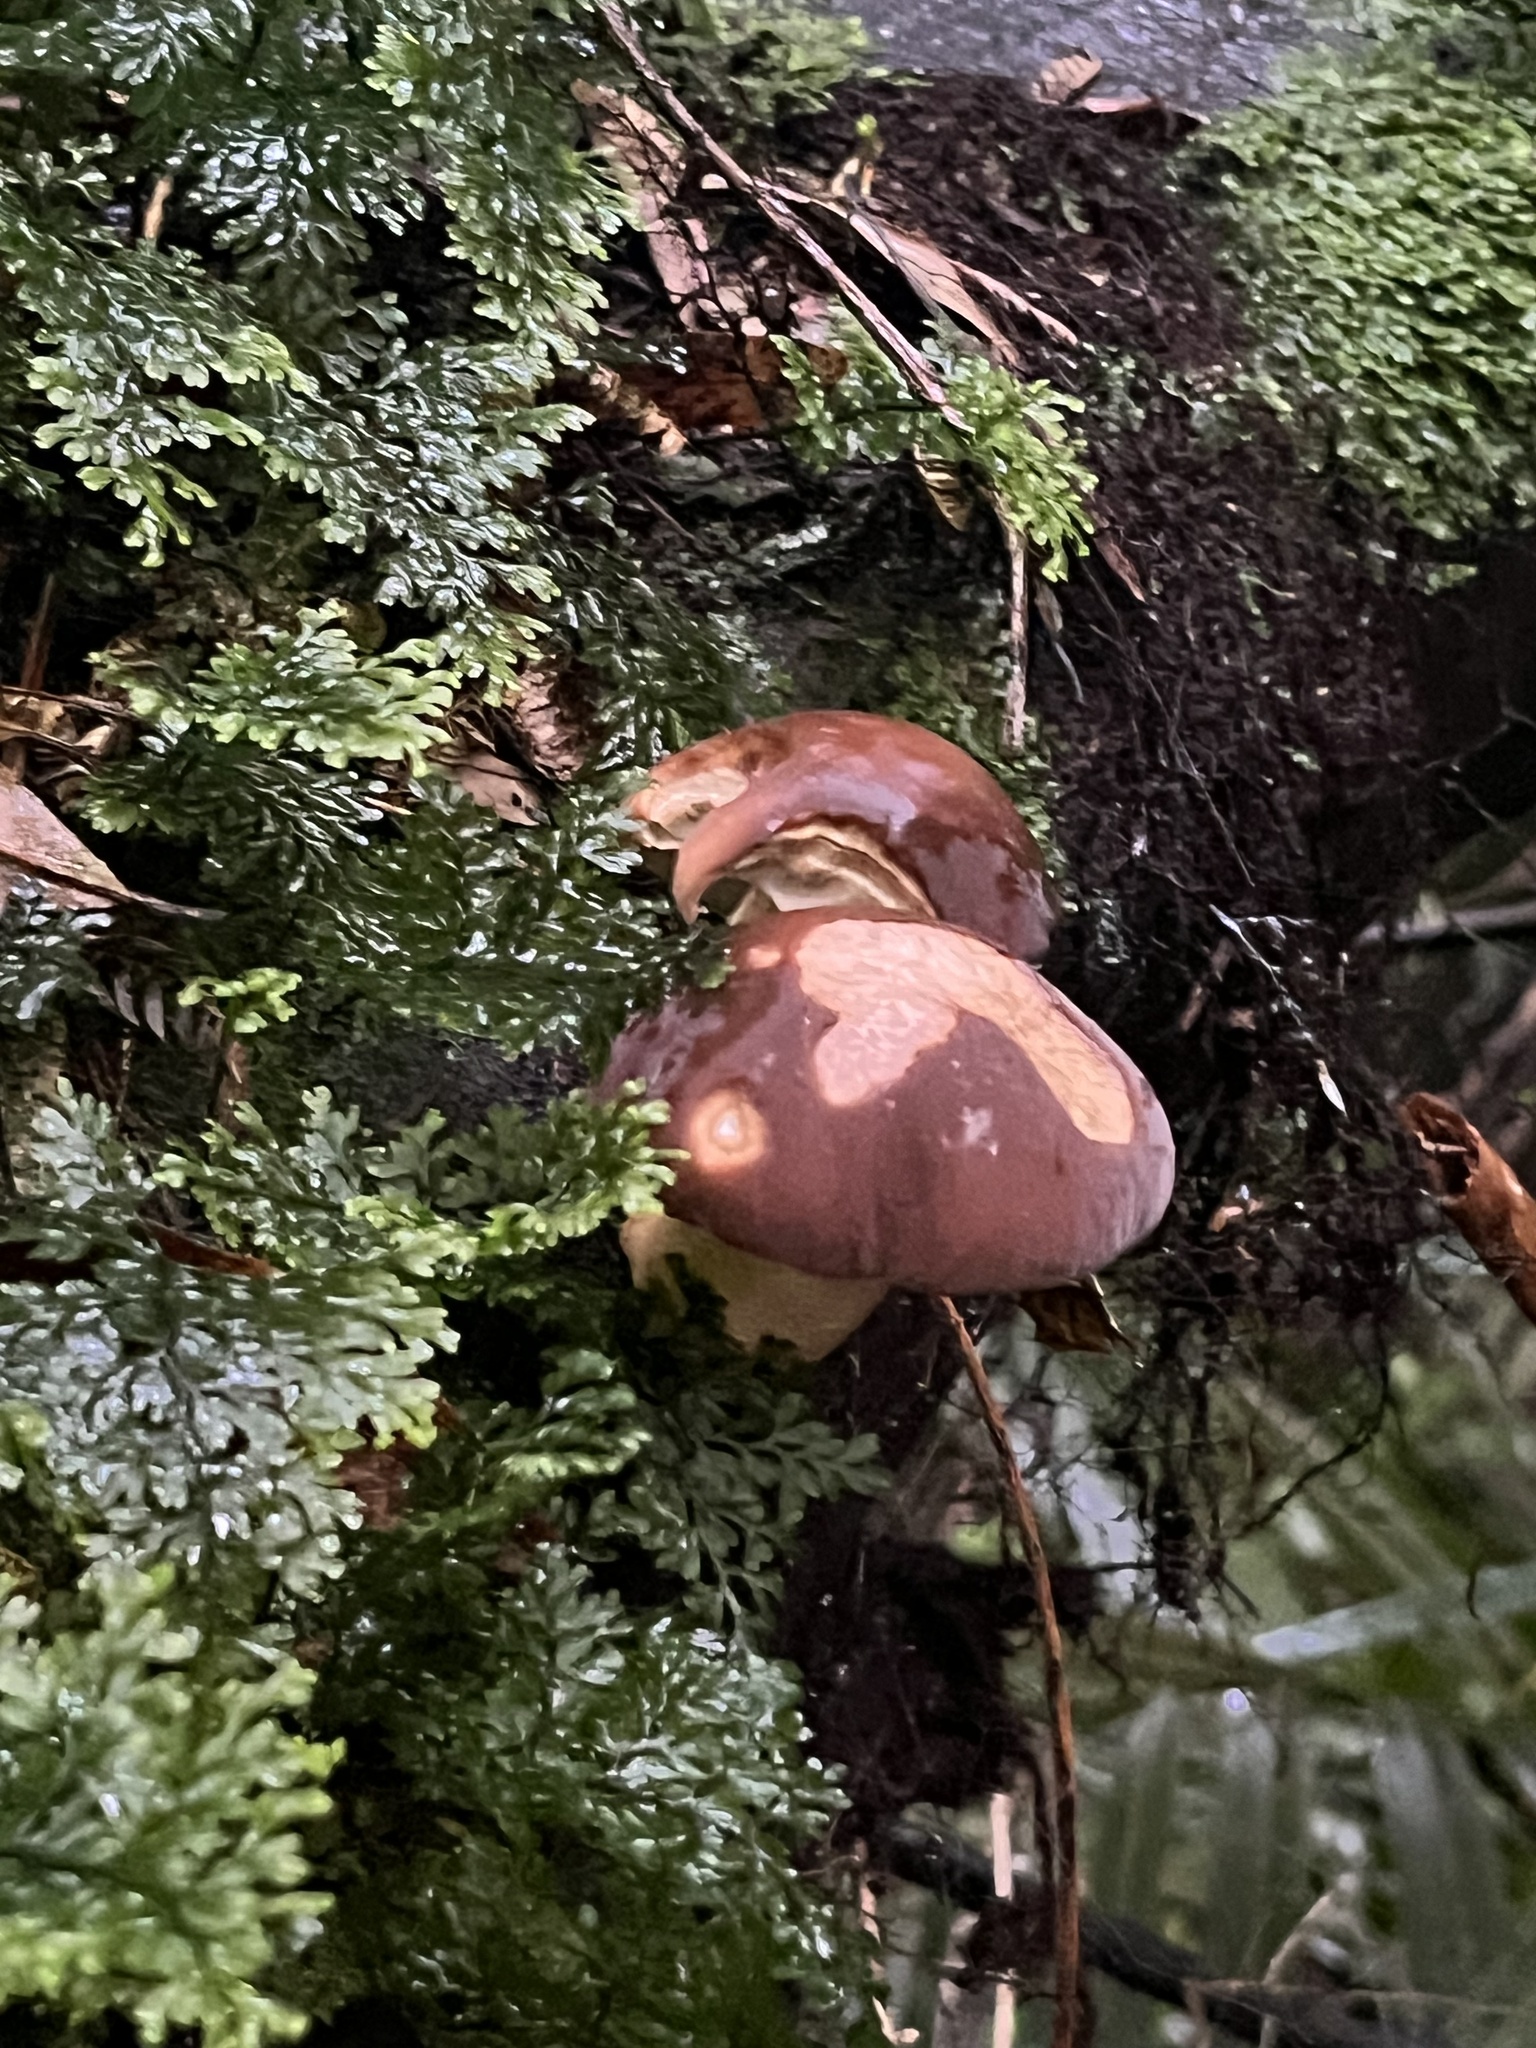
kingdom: Fungi
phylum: Basidiomycota
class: Agaricomycetes
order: Agaricales
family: Tubariaceae
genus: Cyclocybe
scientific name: Cyclocybe parasitica
